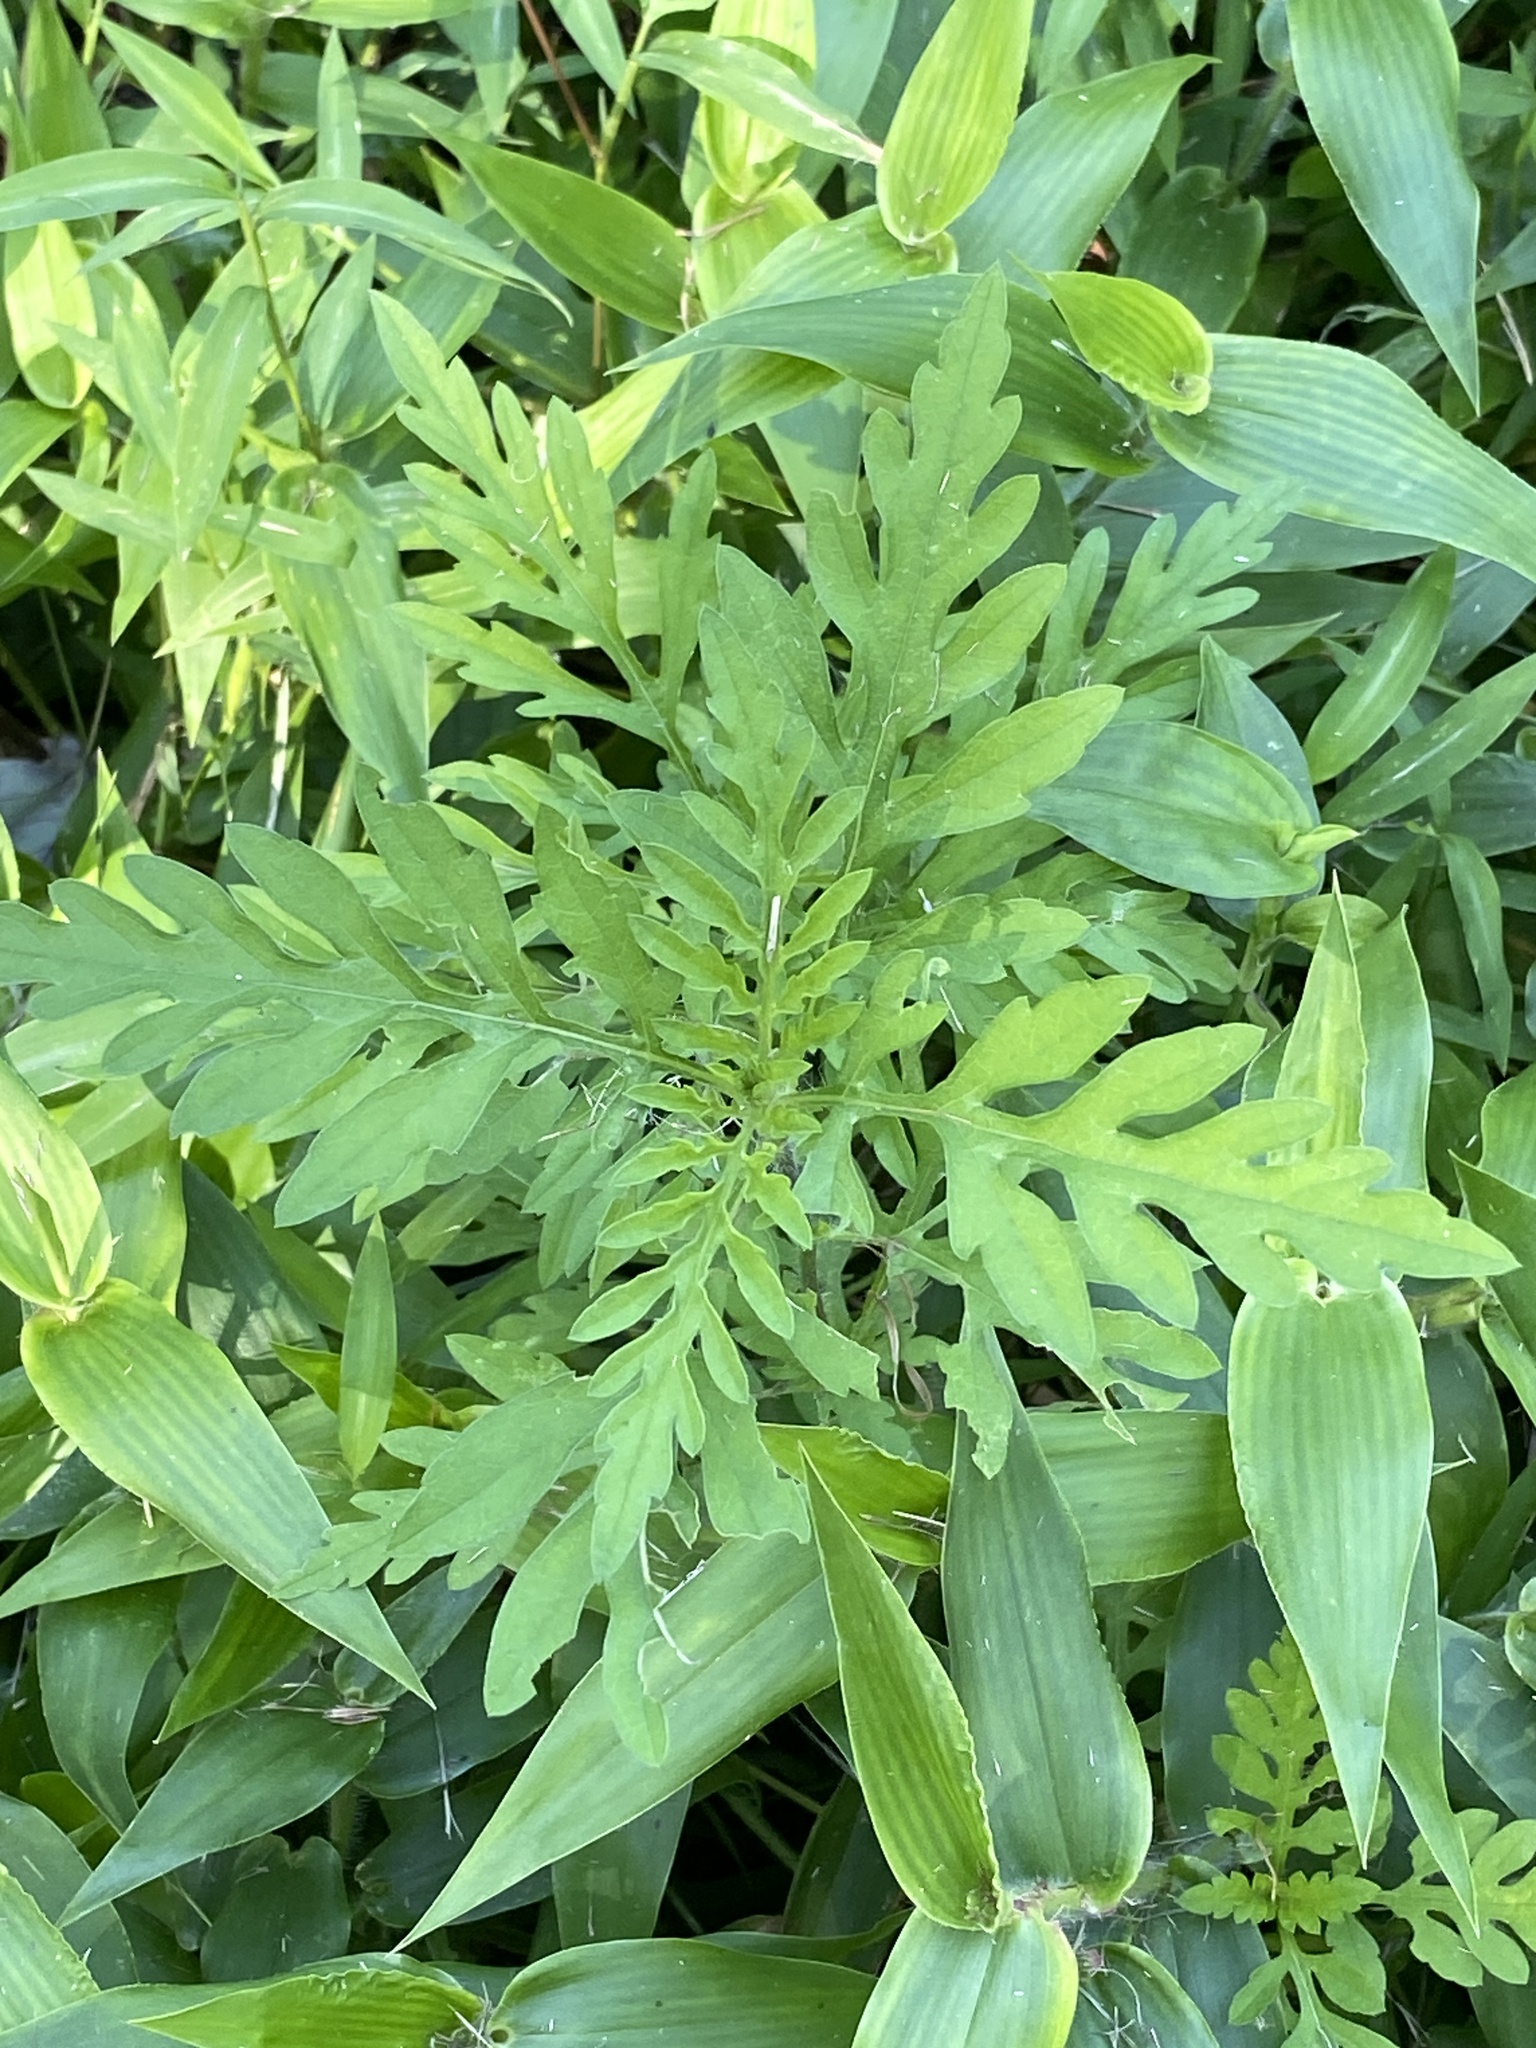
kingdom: Plantae
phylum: Tracheophyta
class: Magnoliopsida
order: Asterales
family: Asteraceae
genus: Ambrosia
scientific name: Ambrosia artemisiifolia
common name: Annual ragweed
